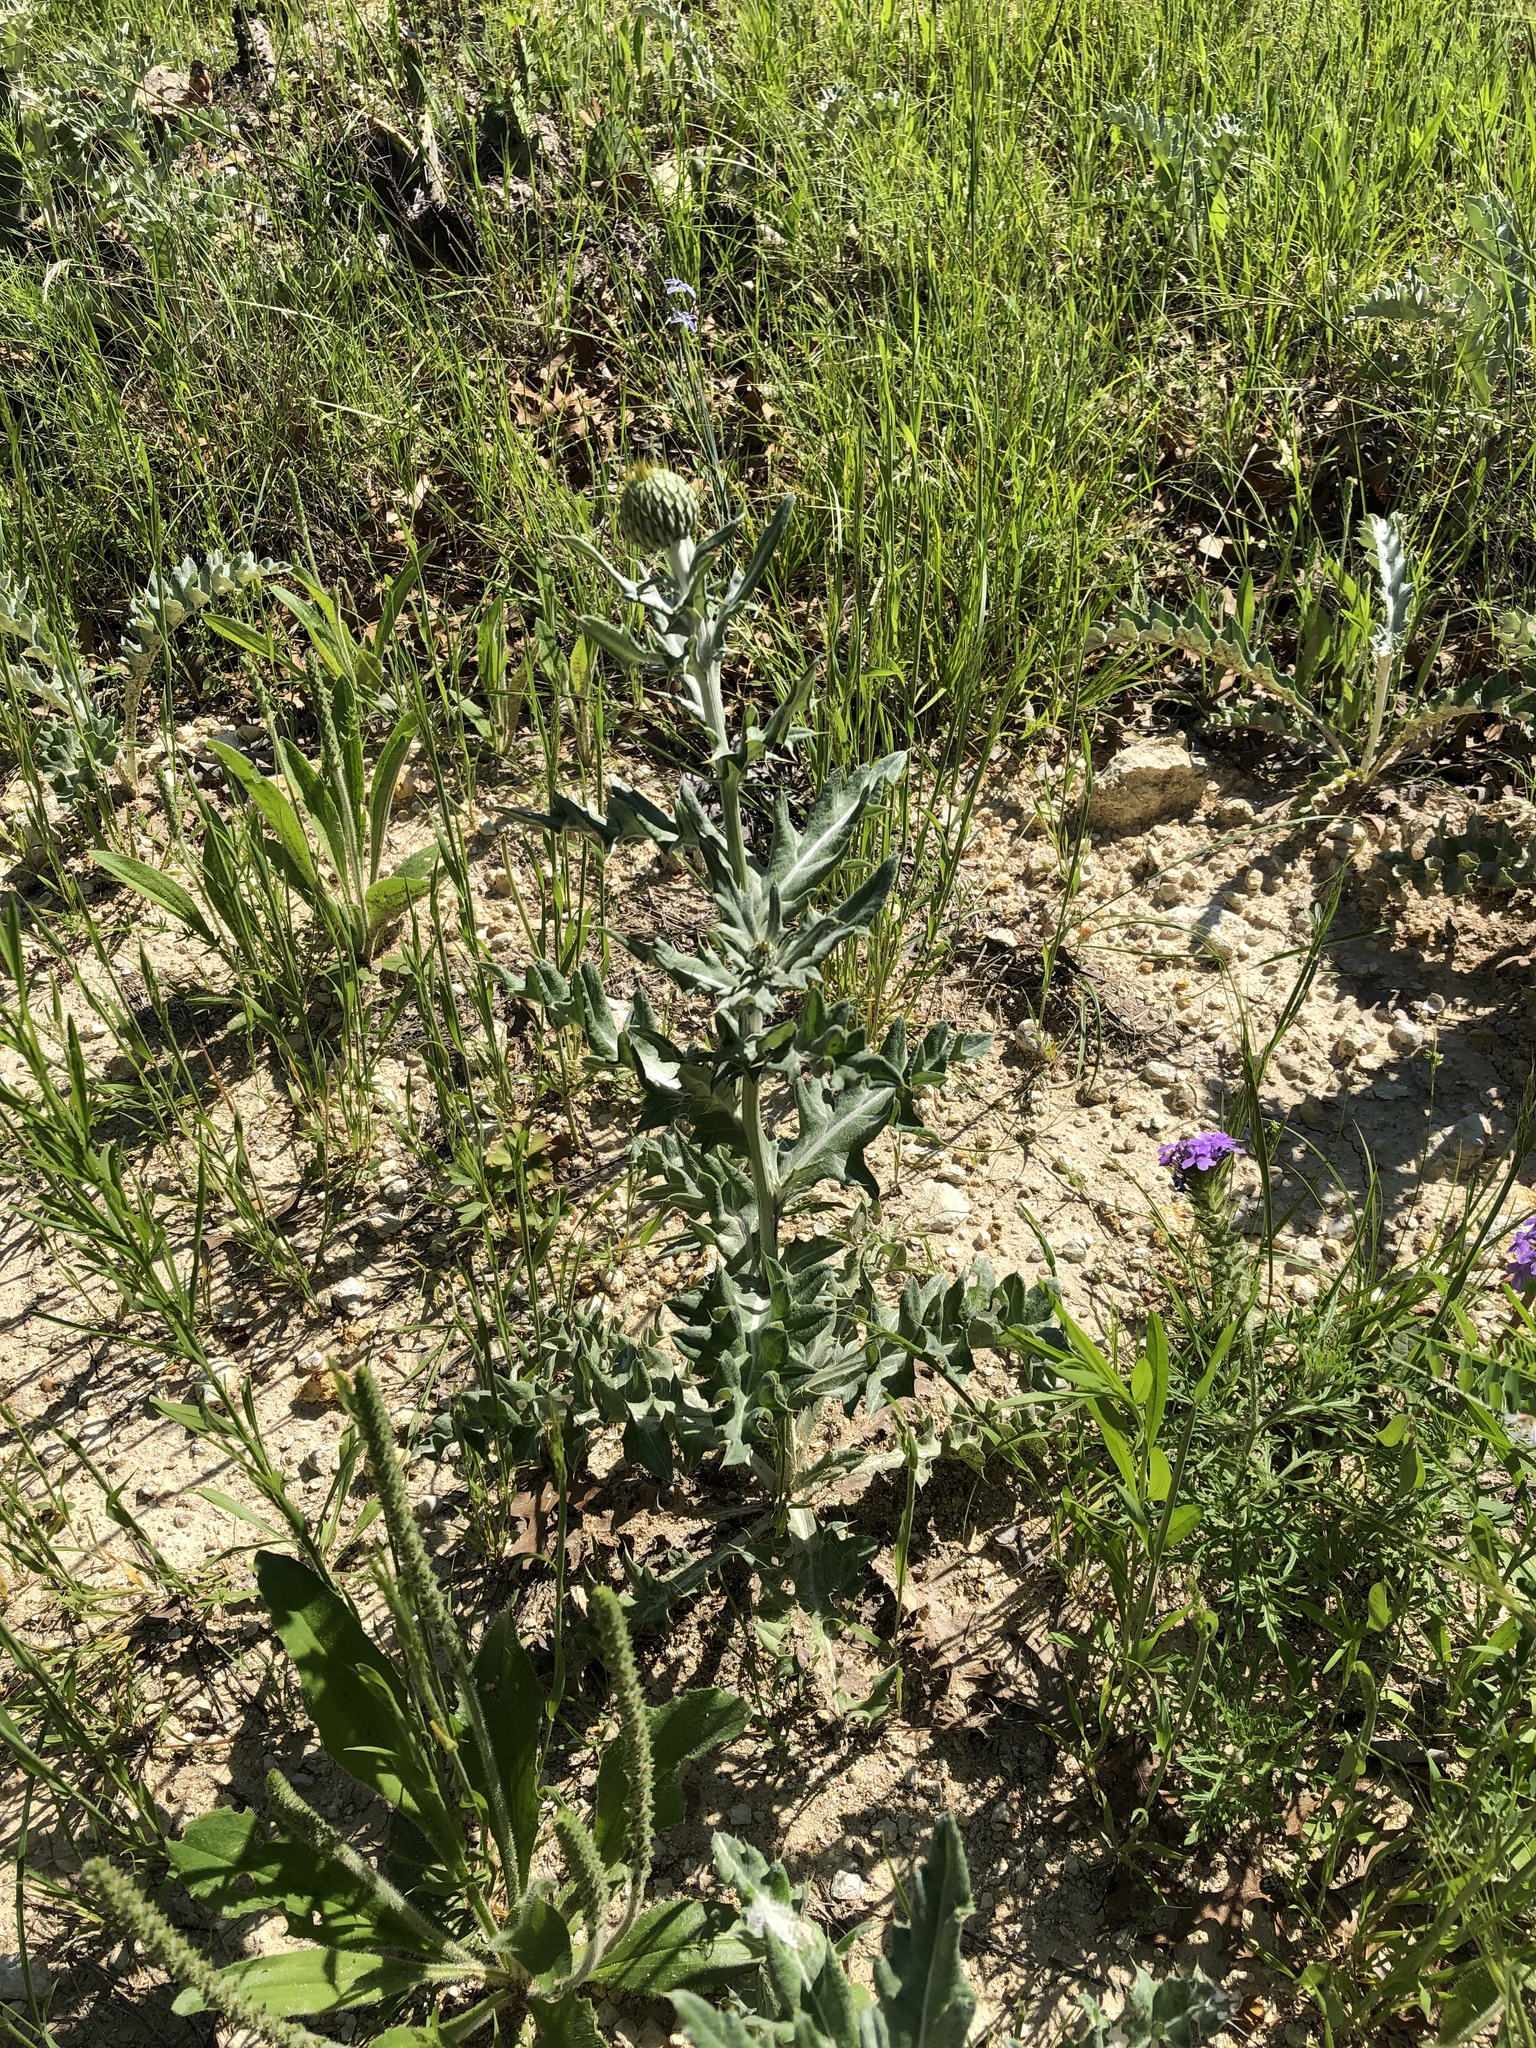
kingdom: Plantae
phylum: Tracheophyta
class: Magnoliopsida
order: Asterales
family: Asteraceae
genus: Cirsium
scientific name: Cirsium undulatum
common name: Pasture thistle
